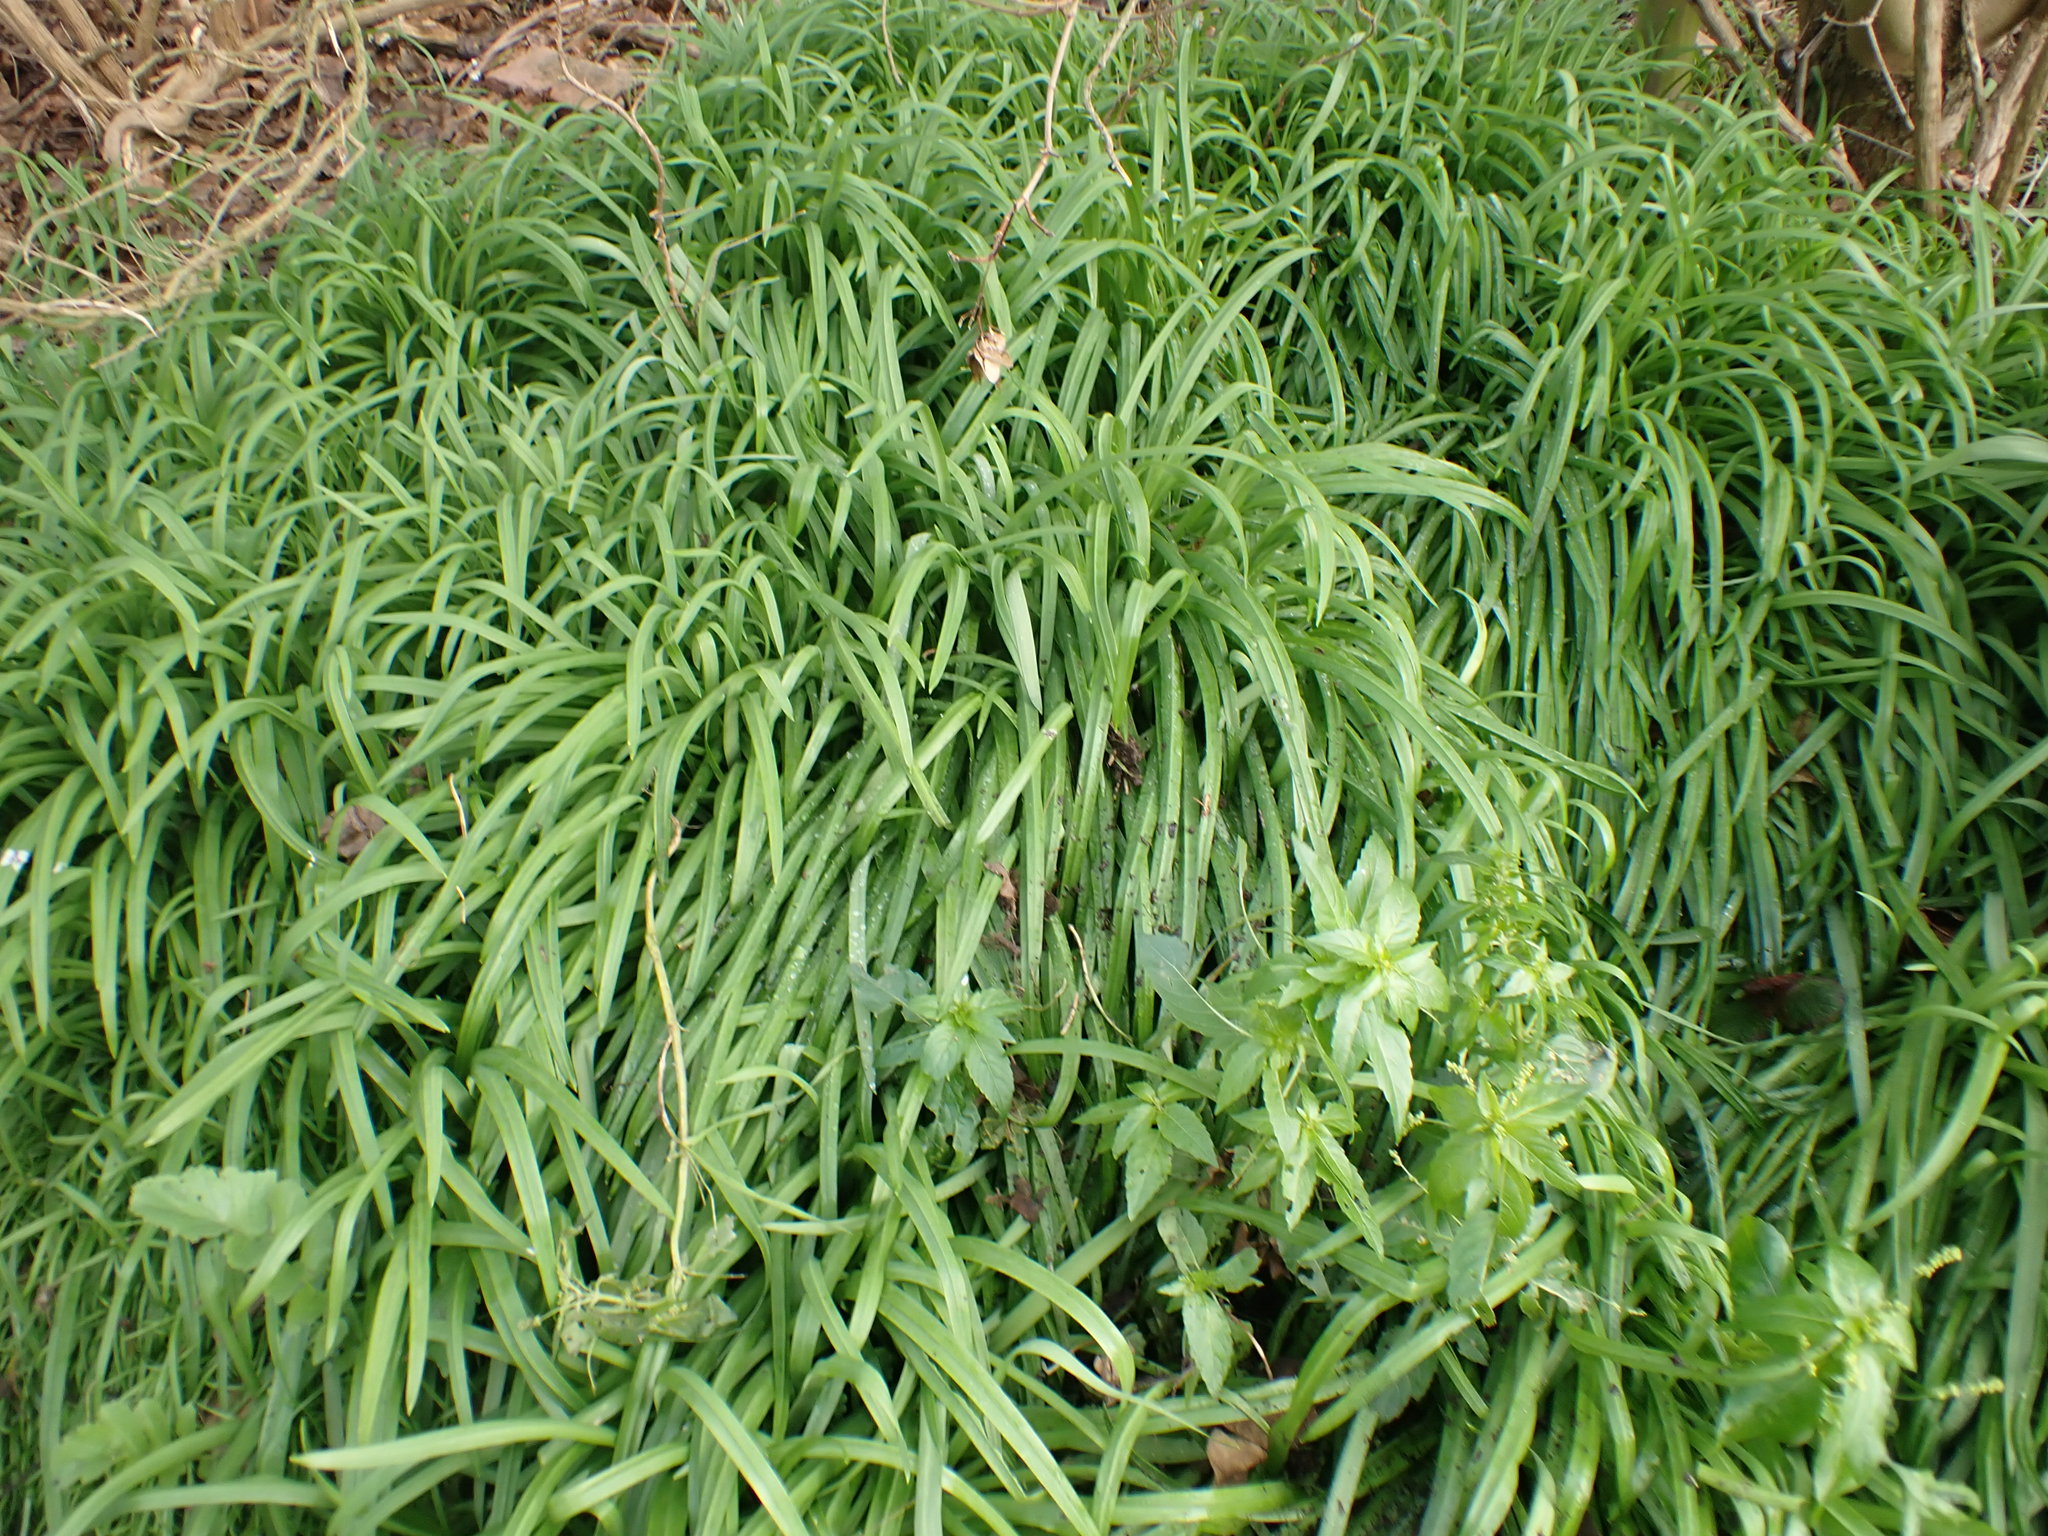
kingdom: Plantae
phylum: Tracheophyta
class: Liliopsida
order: Asparagales
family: Amaryllidaceae
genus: Allium
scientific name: Allium triquetrum
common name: Three-cornered garlic
